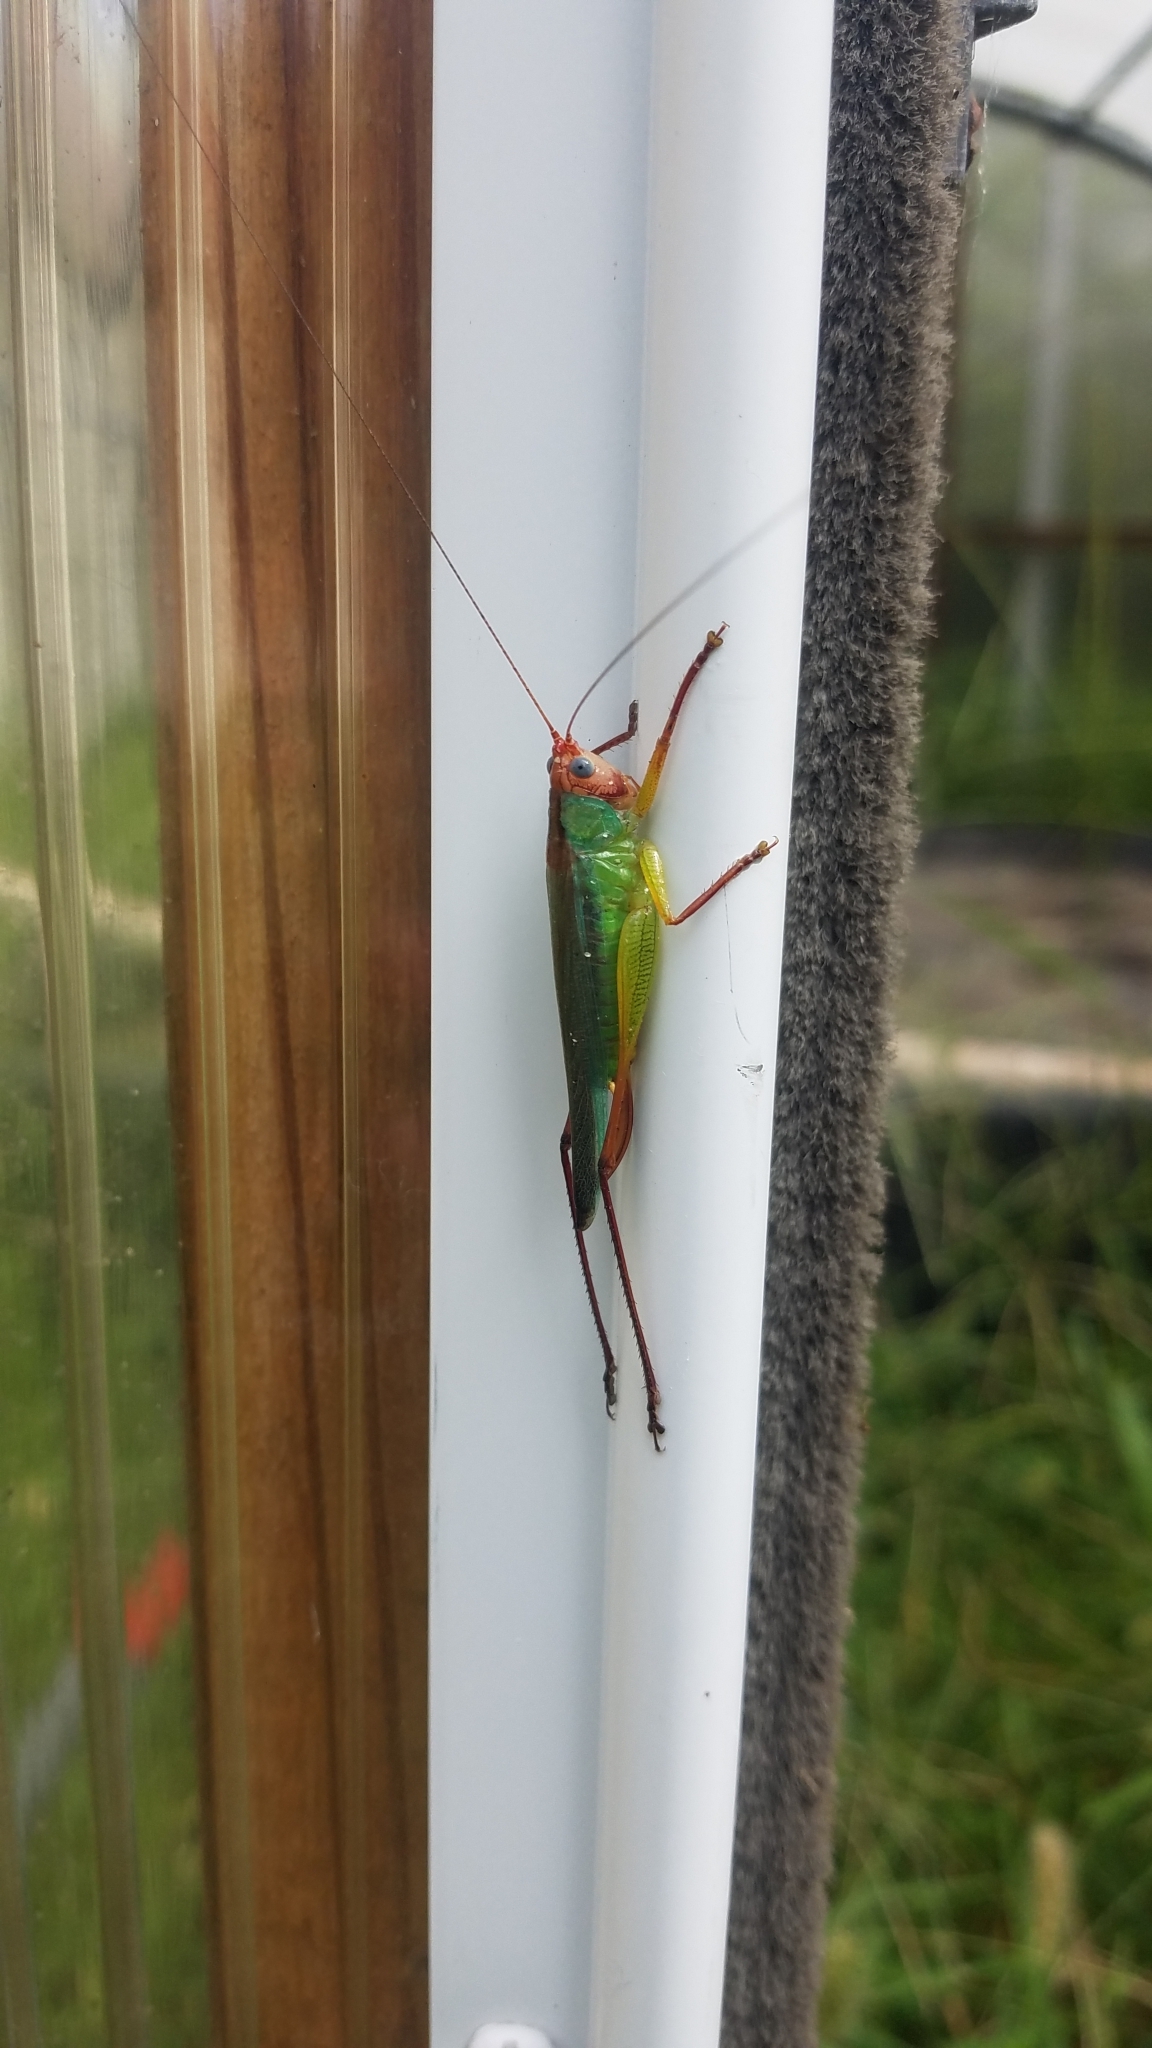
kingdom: Animalia
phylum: Arthropoda
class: Insecta
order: Orthoptera
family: Tettigoniidae
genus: Orchelimum
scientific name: Orchelimum pulchellum
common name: Handsome meadow katydid
